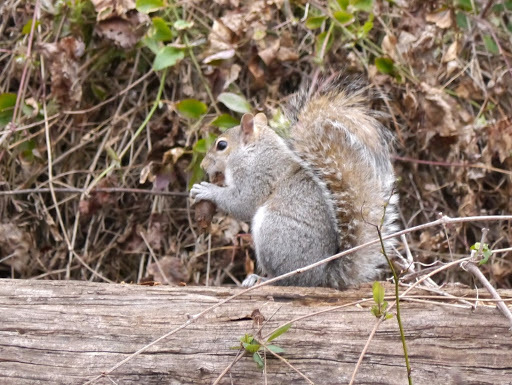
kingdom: Animalia
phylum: Chordata
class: Mammalia
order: Rodentia
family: Sciuridae
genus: Sciurus
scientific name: Sciurus carolinensis
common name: Eastern gray squirrel
